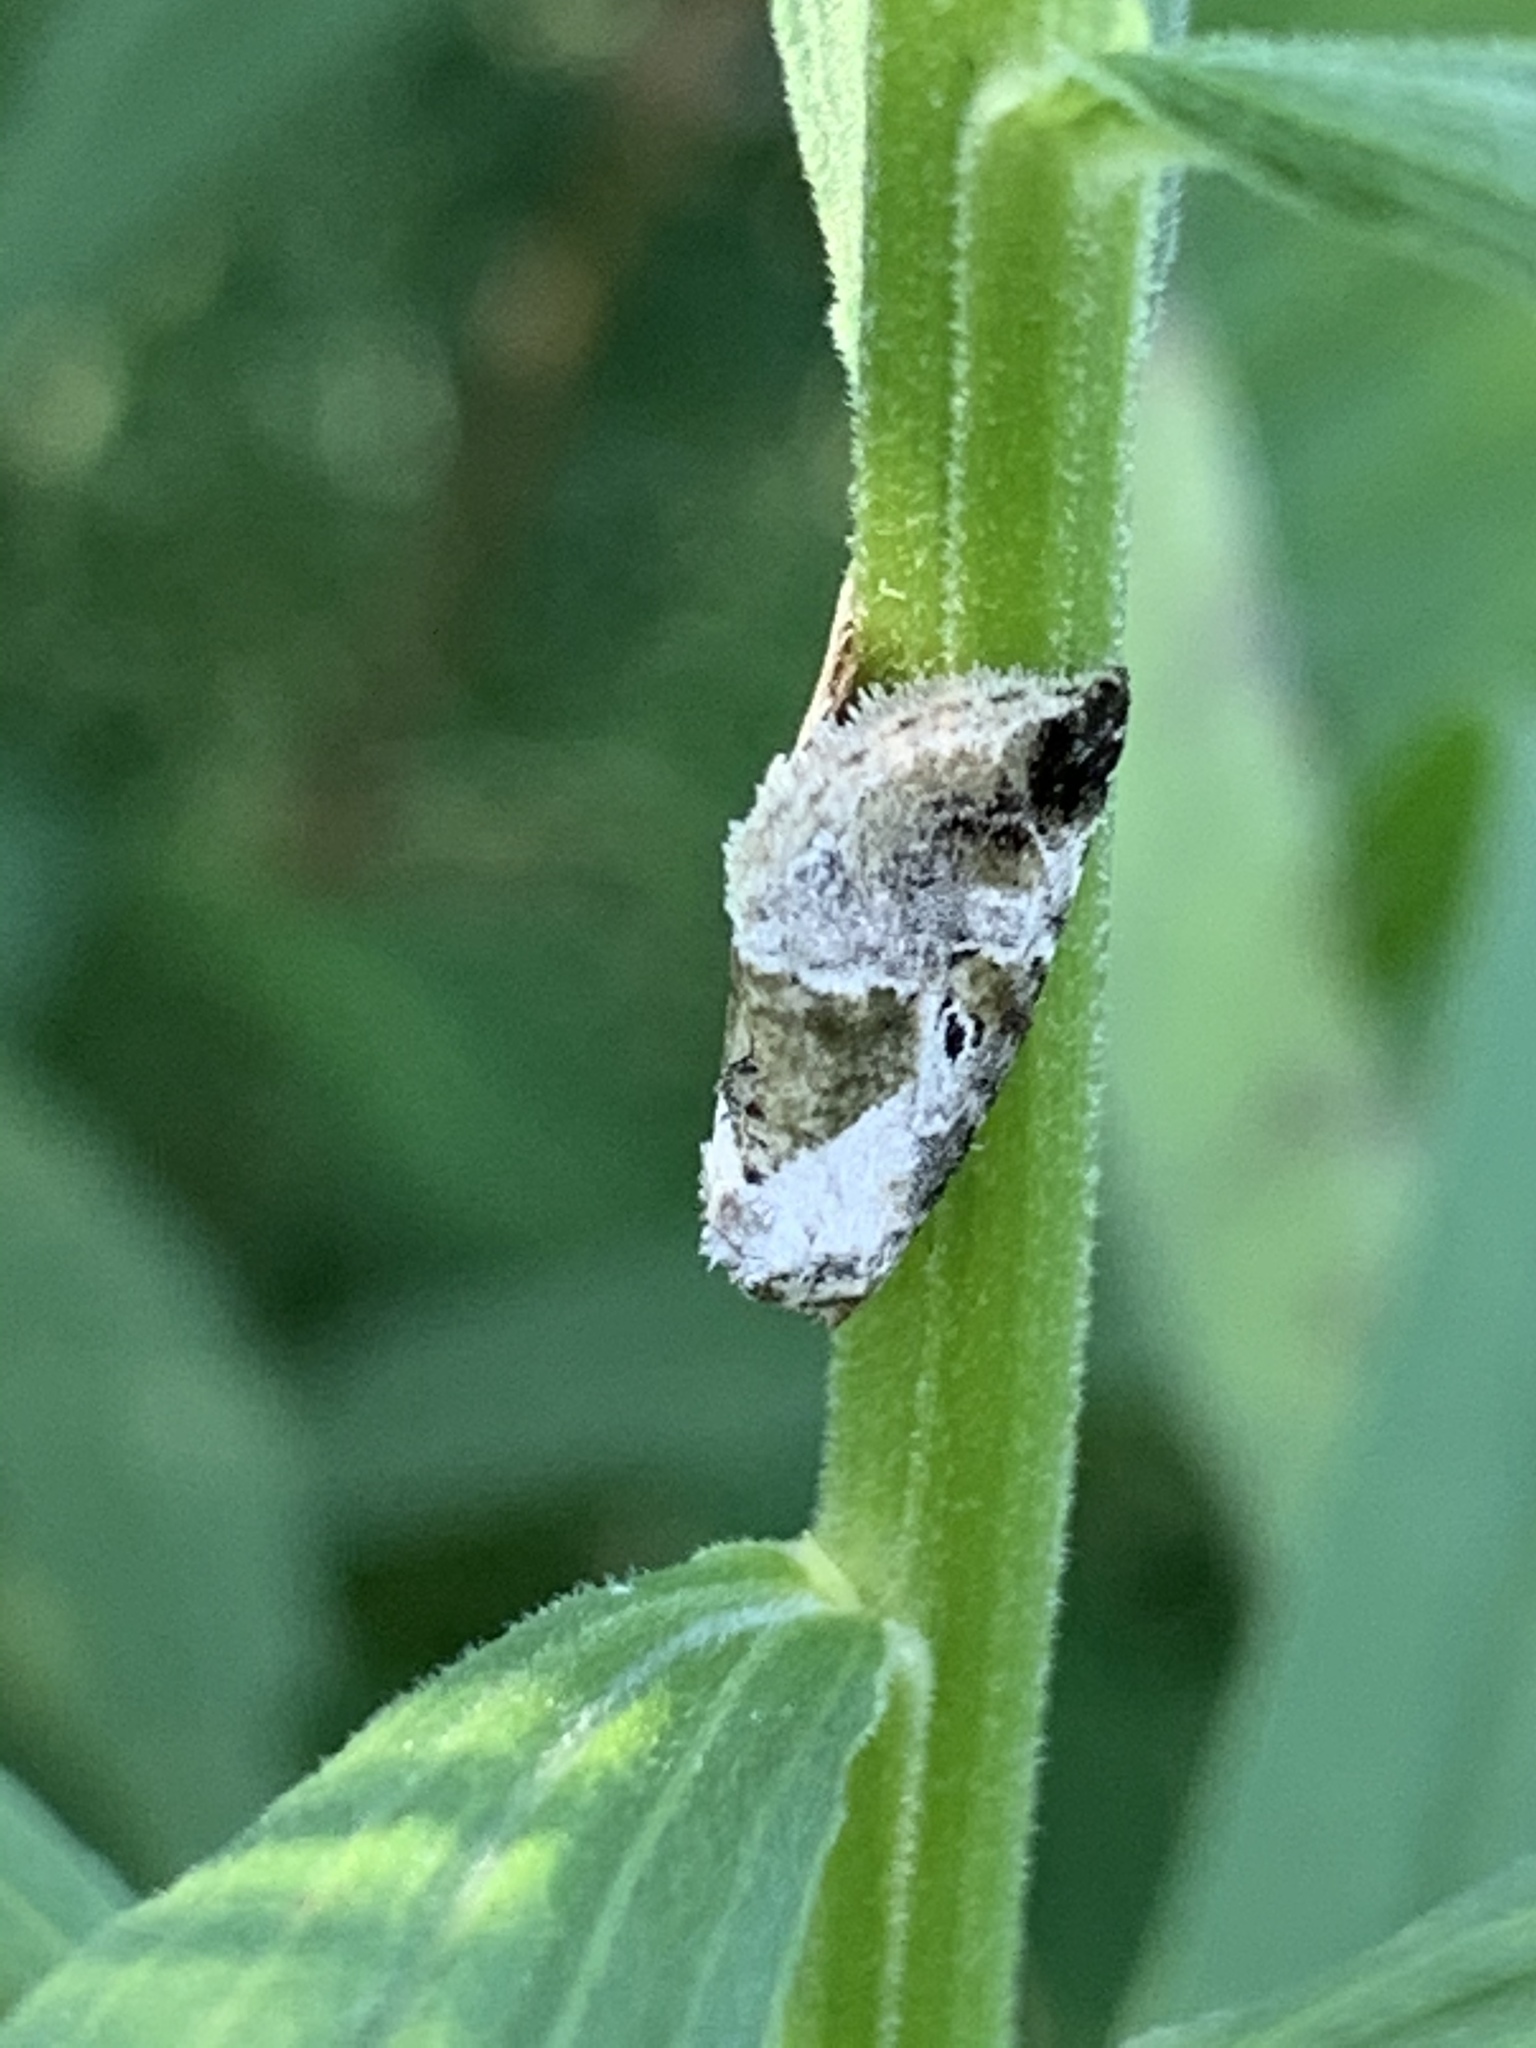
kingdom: Animalia
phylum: Arthropoda
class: Insecta
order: Lepidoptera
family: Noctuidae
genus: Maliattha
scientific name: Maliattha synochitis
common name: Black-dotted glyph
